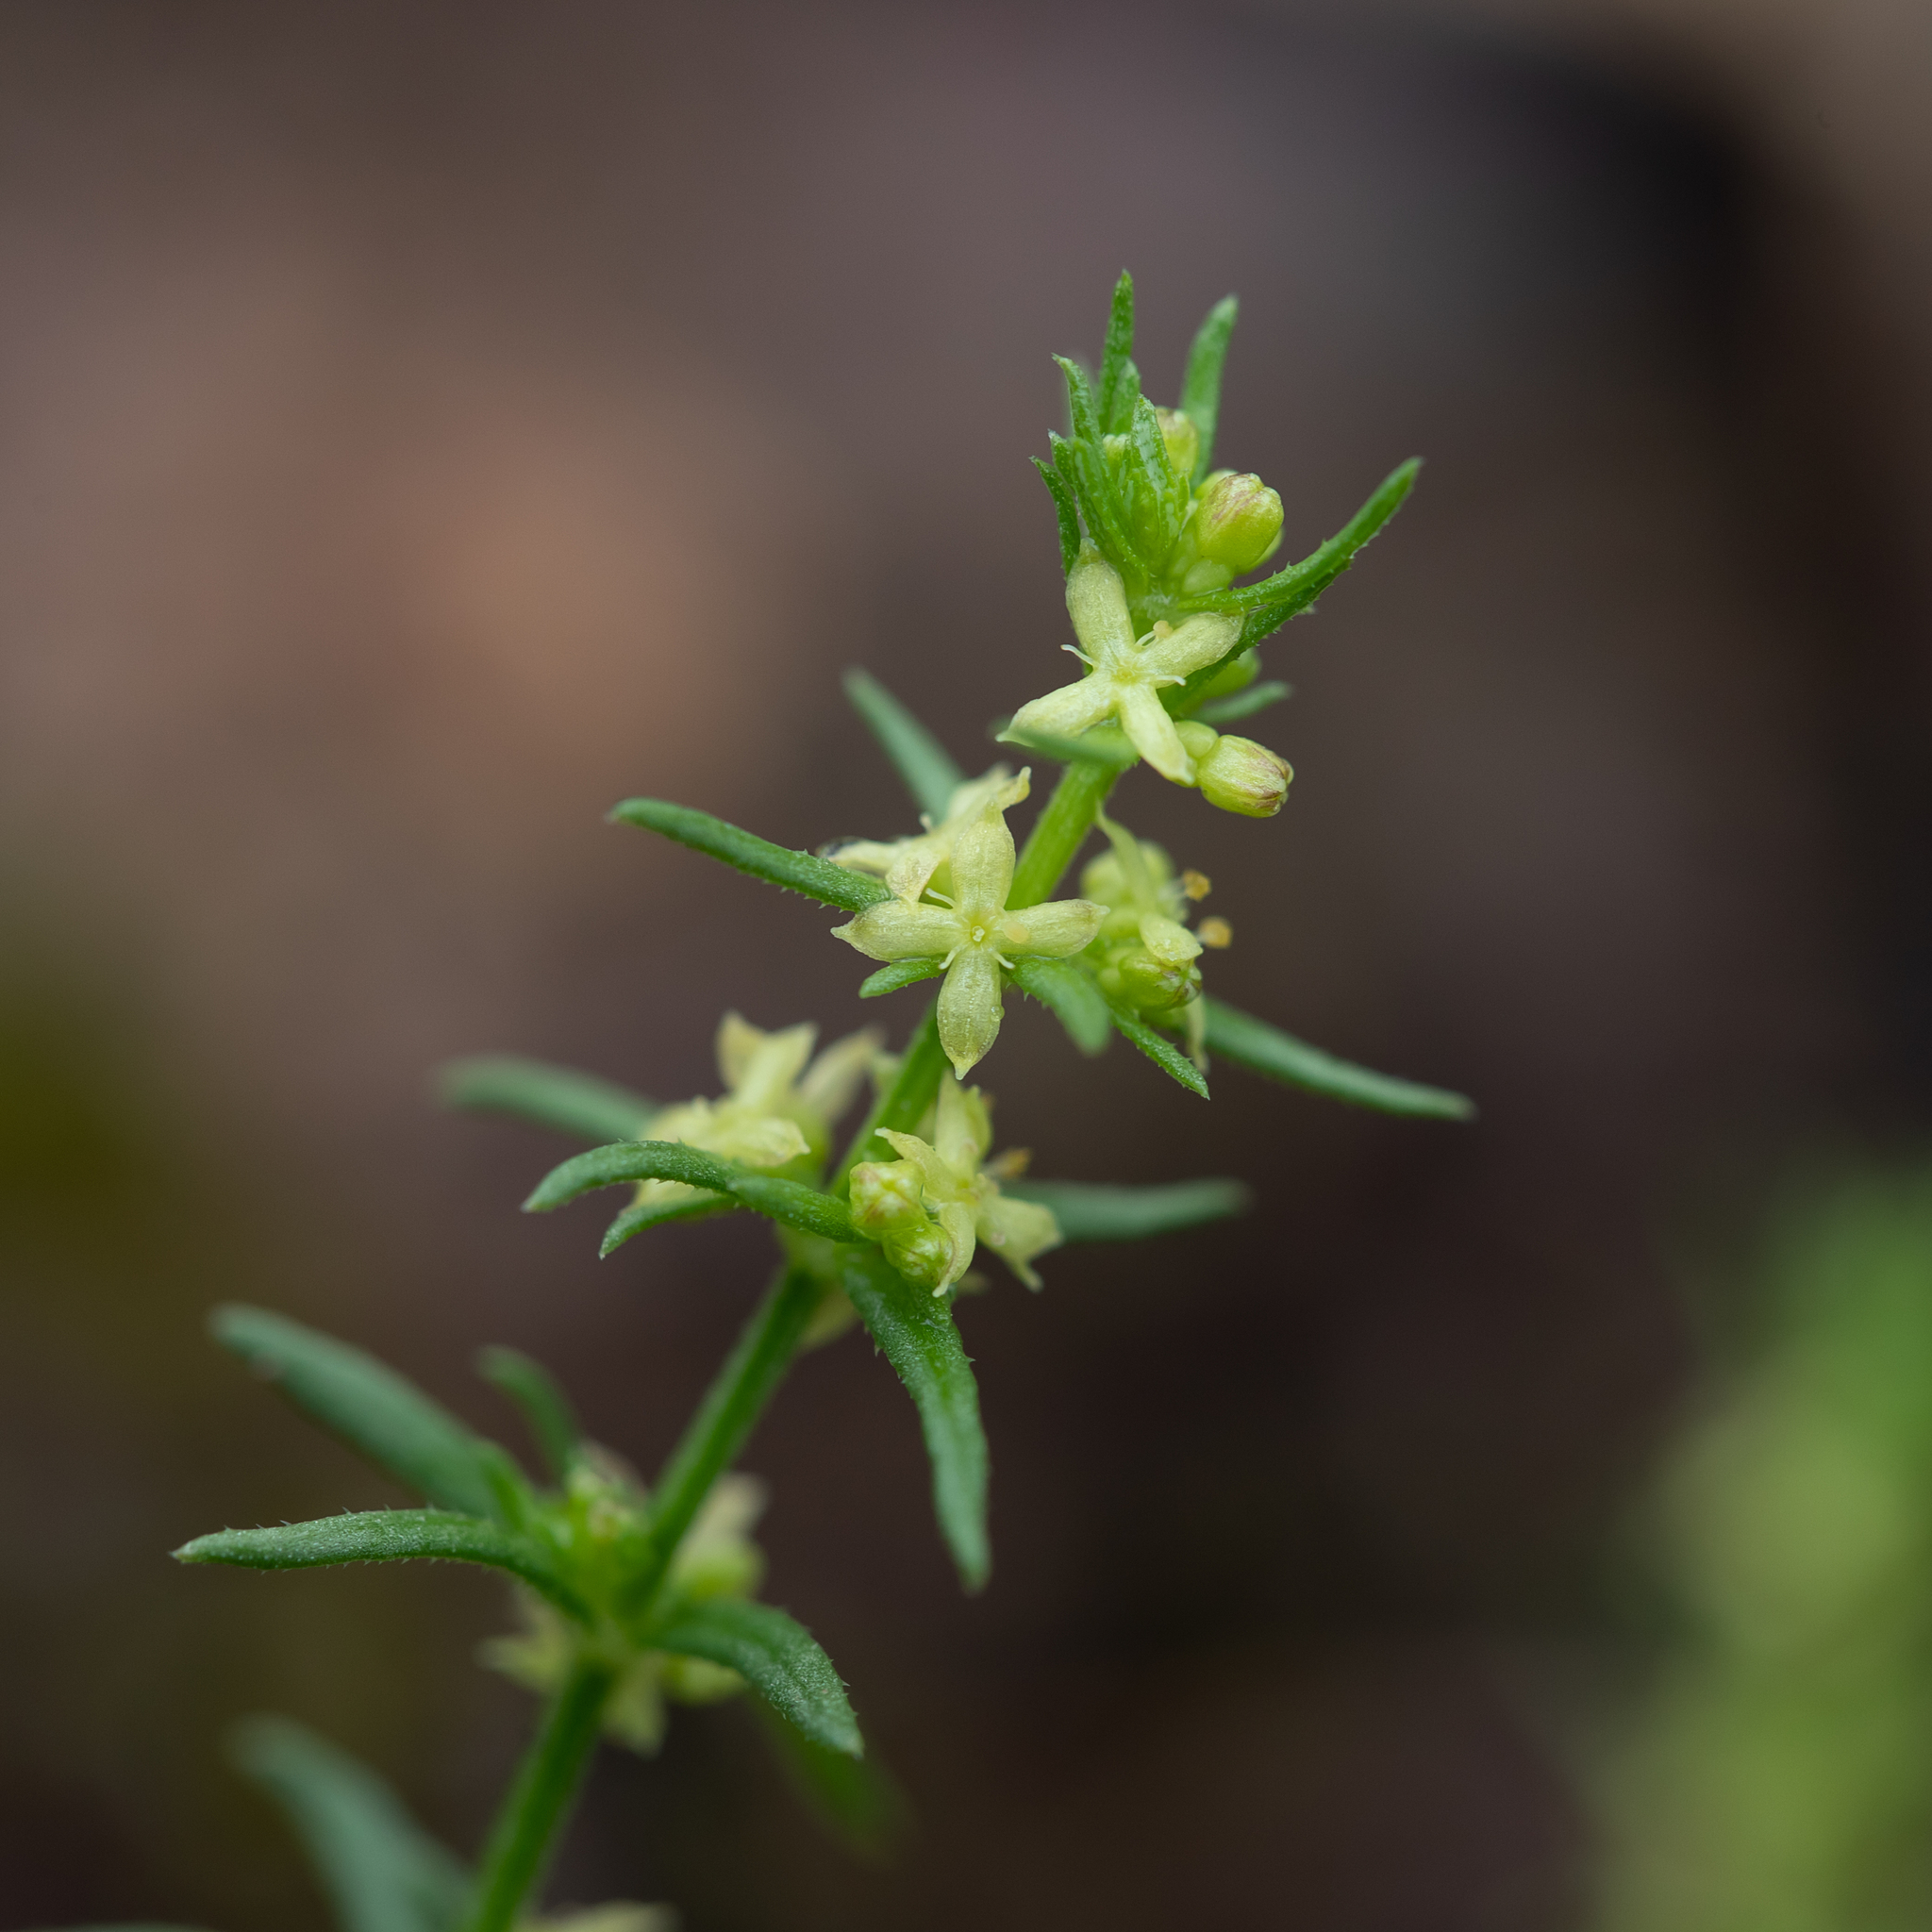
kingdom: Plantae
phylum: Tracheophyta
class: Magnoliopsida
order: Gentianales
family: Rubiaceae
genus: Galium
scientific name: Galium gaudichaudii
